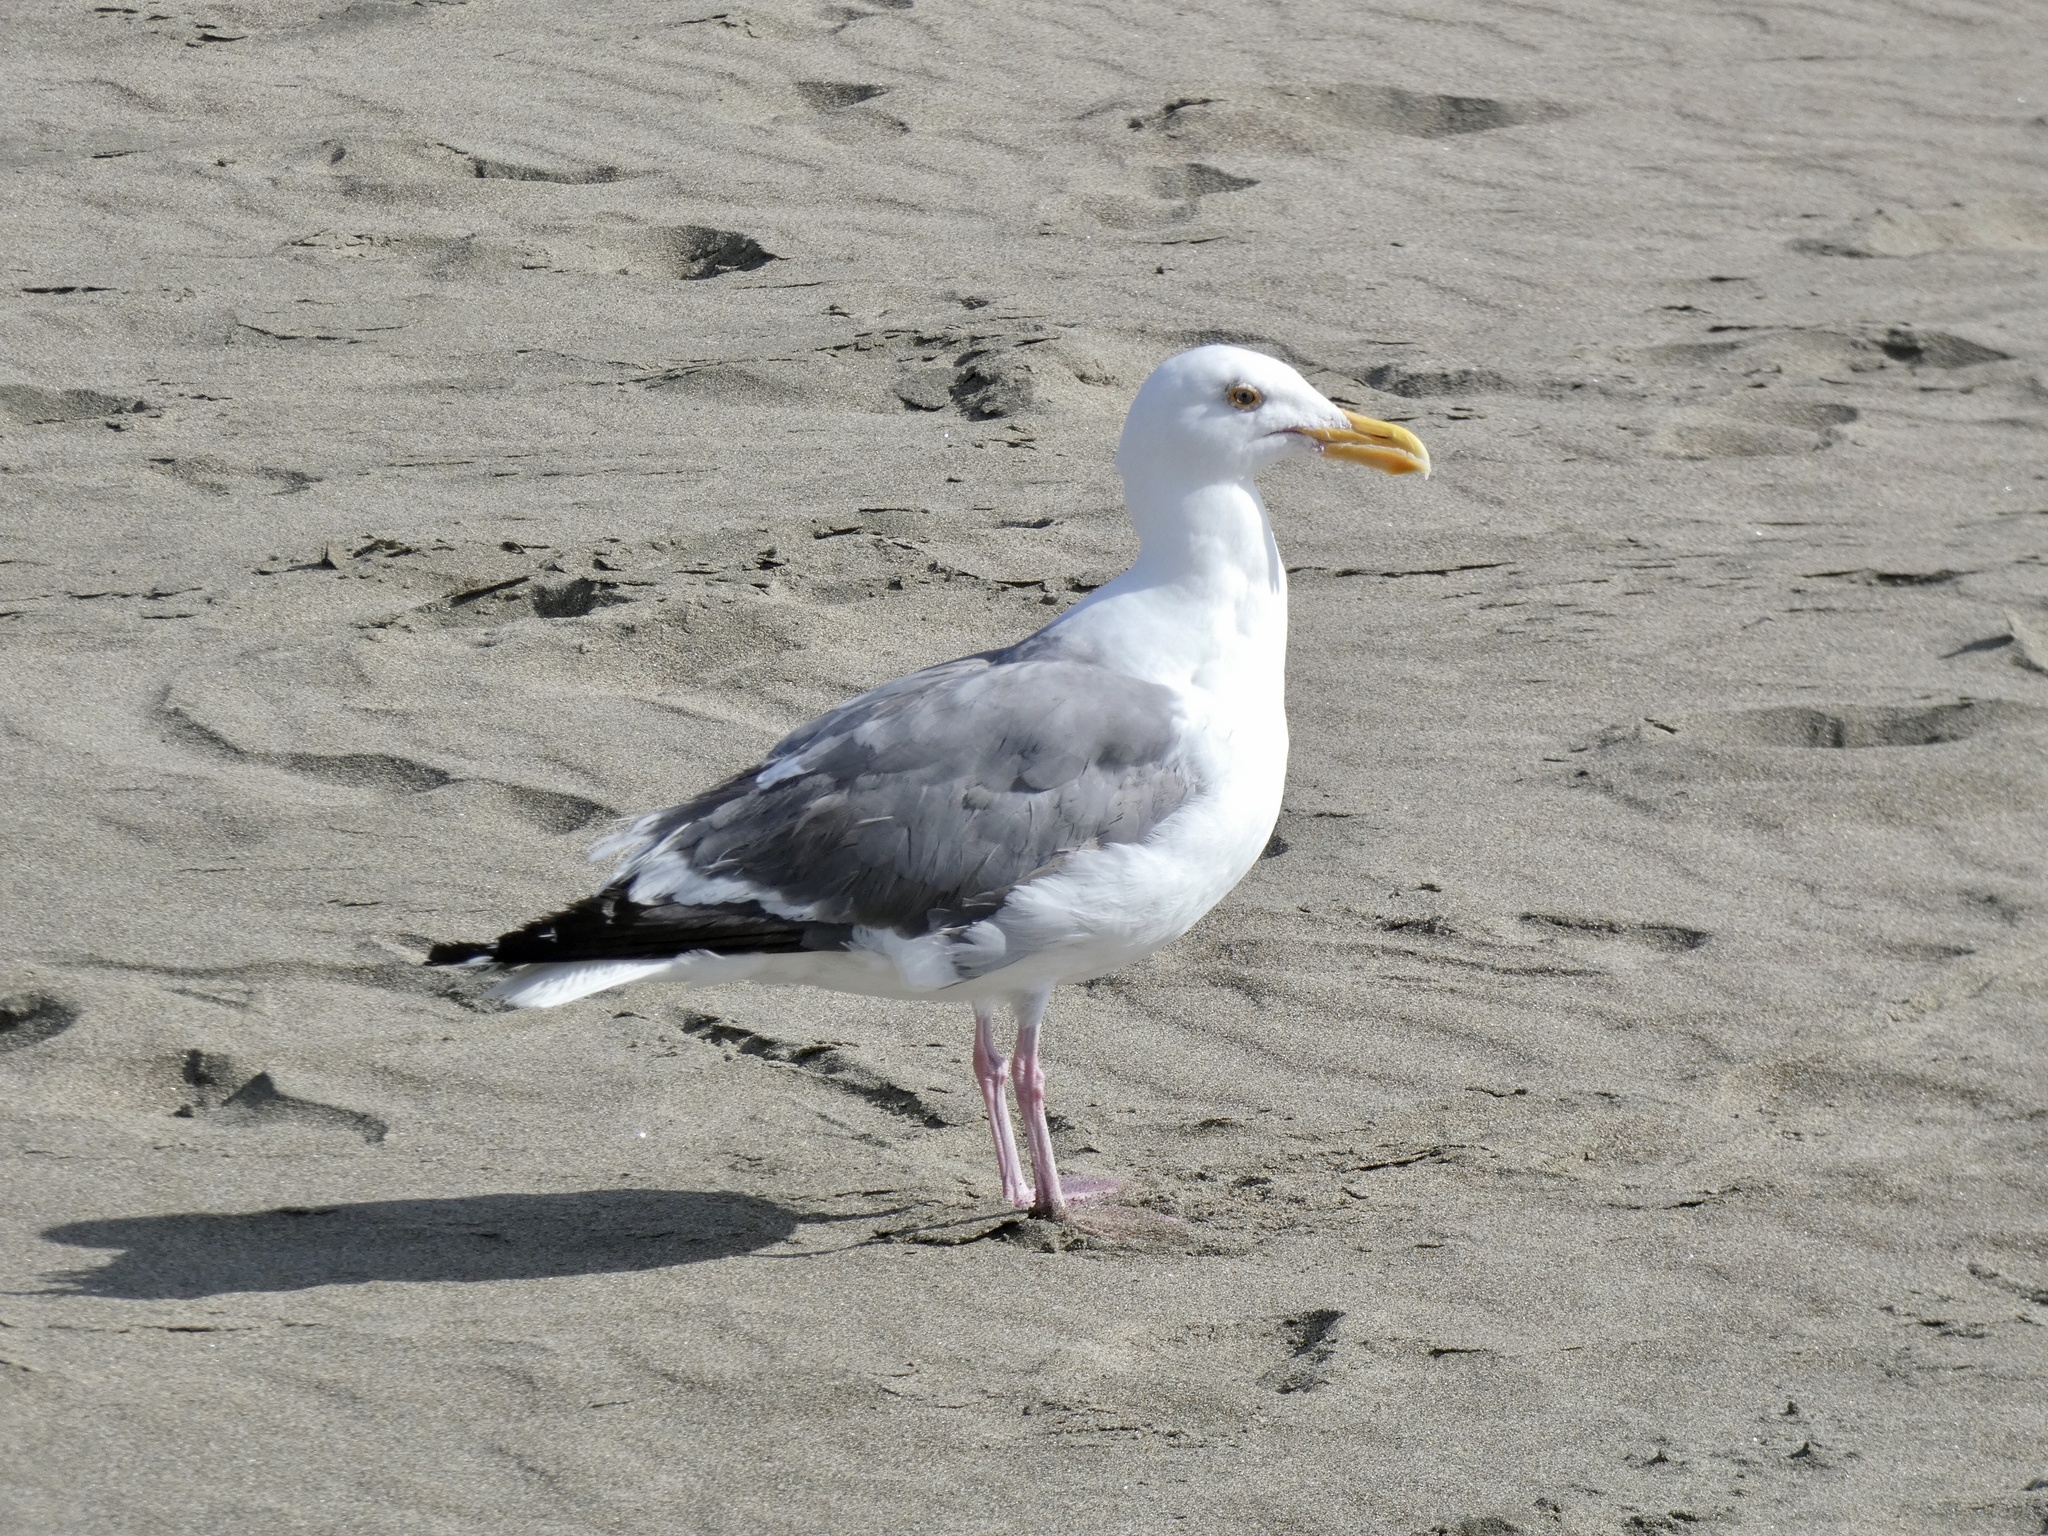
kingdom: Animalia
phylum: Chordata
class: Aves
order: Charadriiformes
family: Laridae
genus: Larus
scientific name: Larus occidentalis
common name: Western gull
